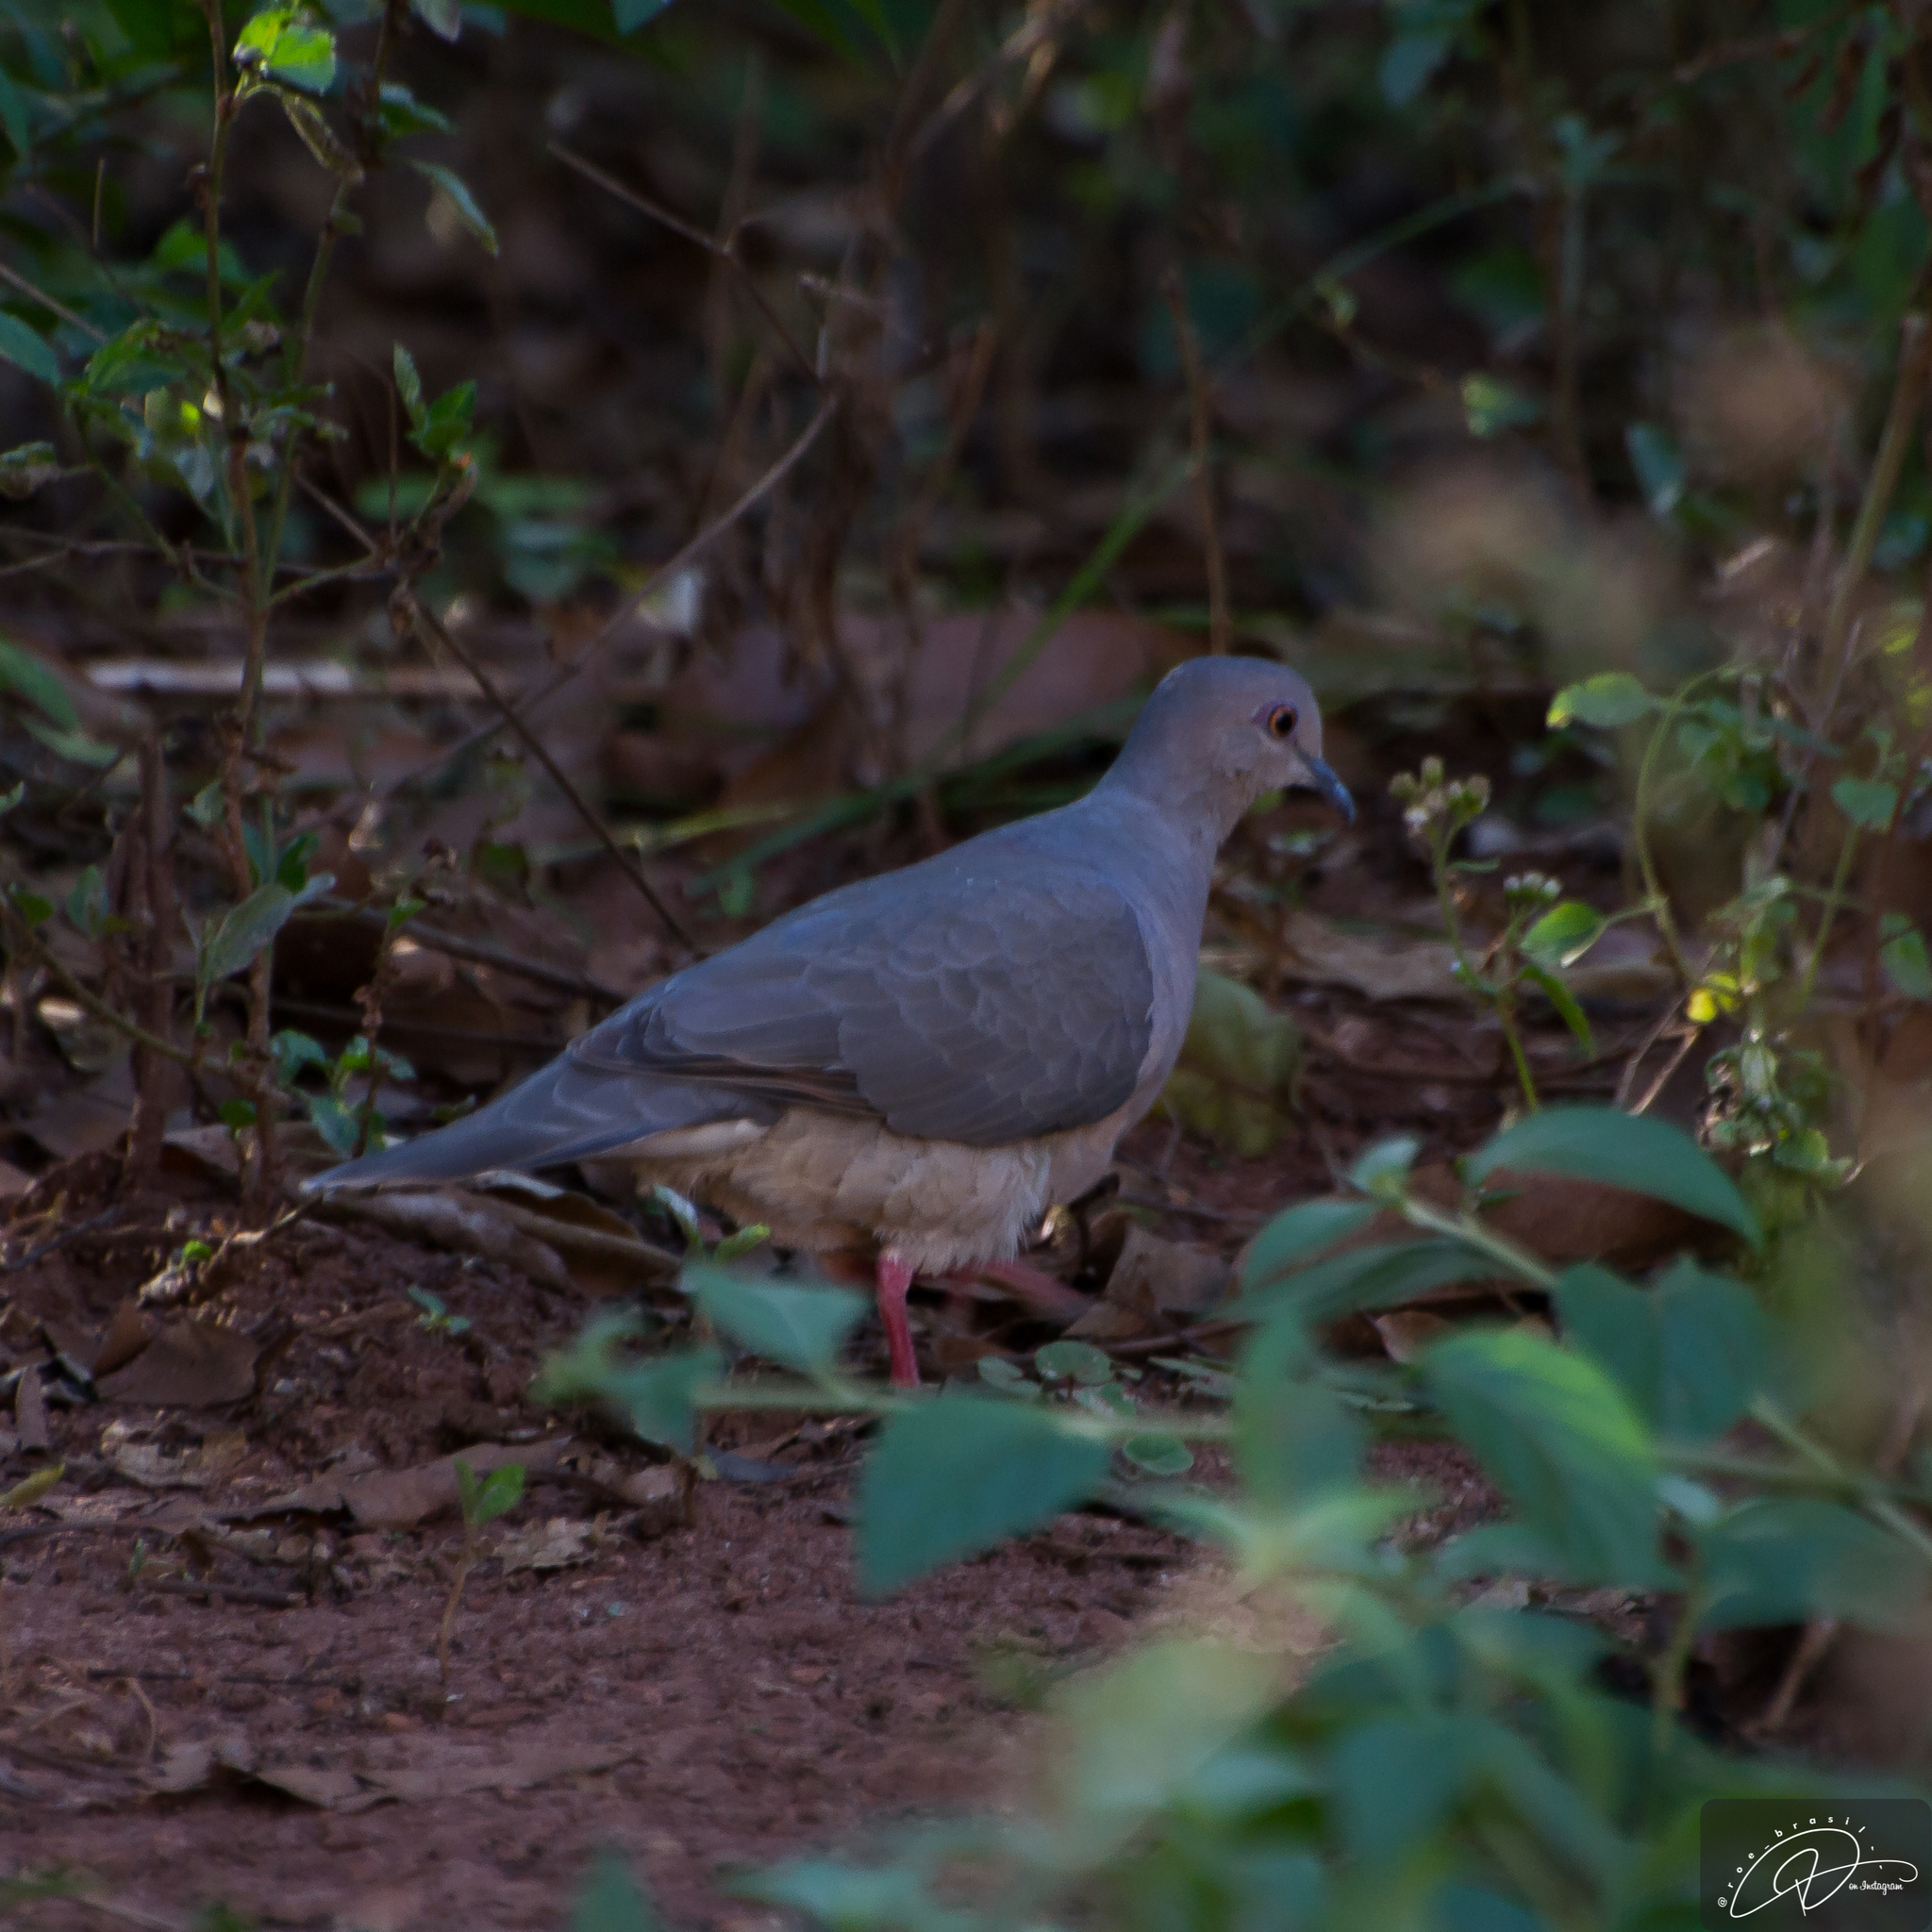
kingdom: Animalia
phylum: Chordata
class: Aves
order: Columbiformes
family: Columbidae
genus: Leptotila
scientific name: Leptotila verreauxi
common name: White-tipped dove
